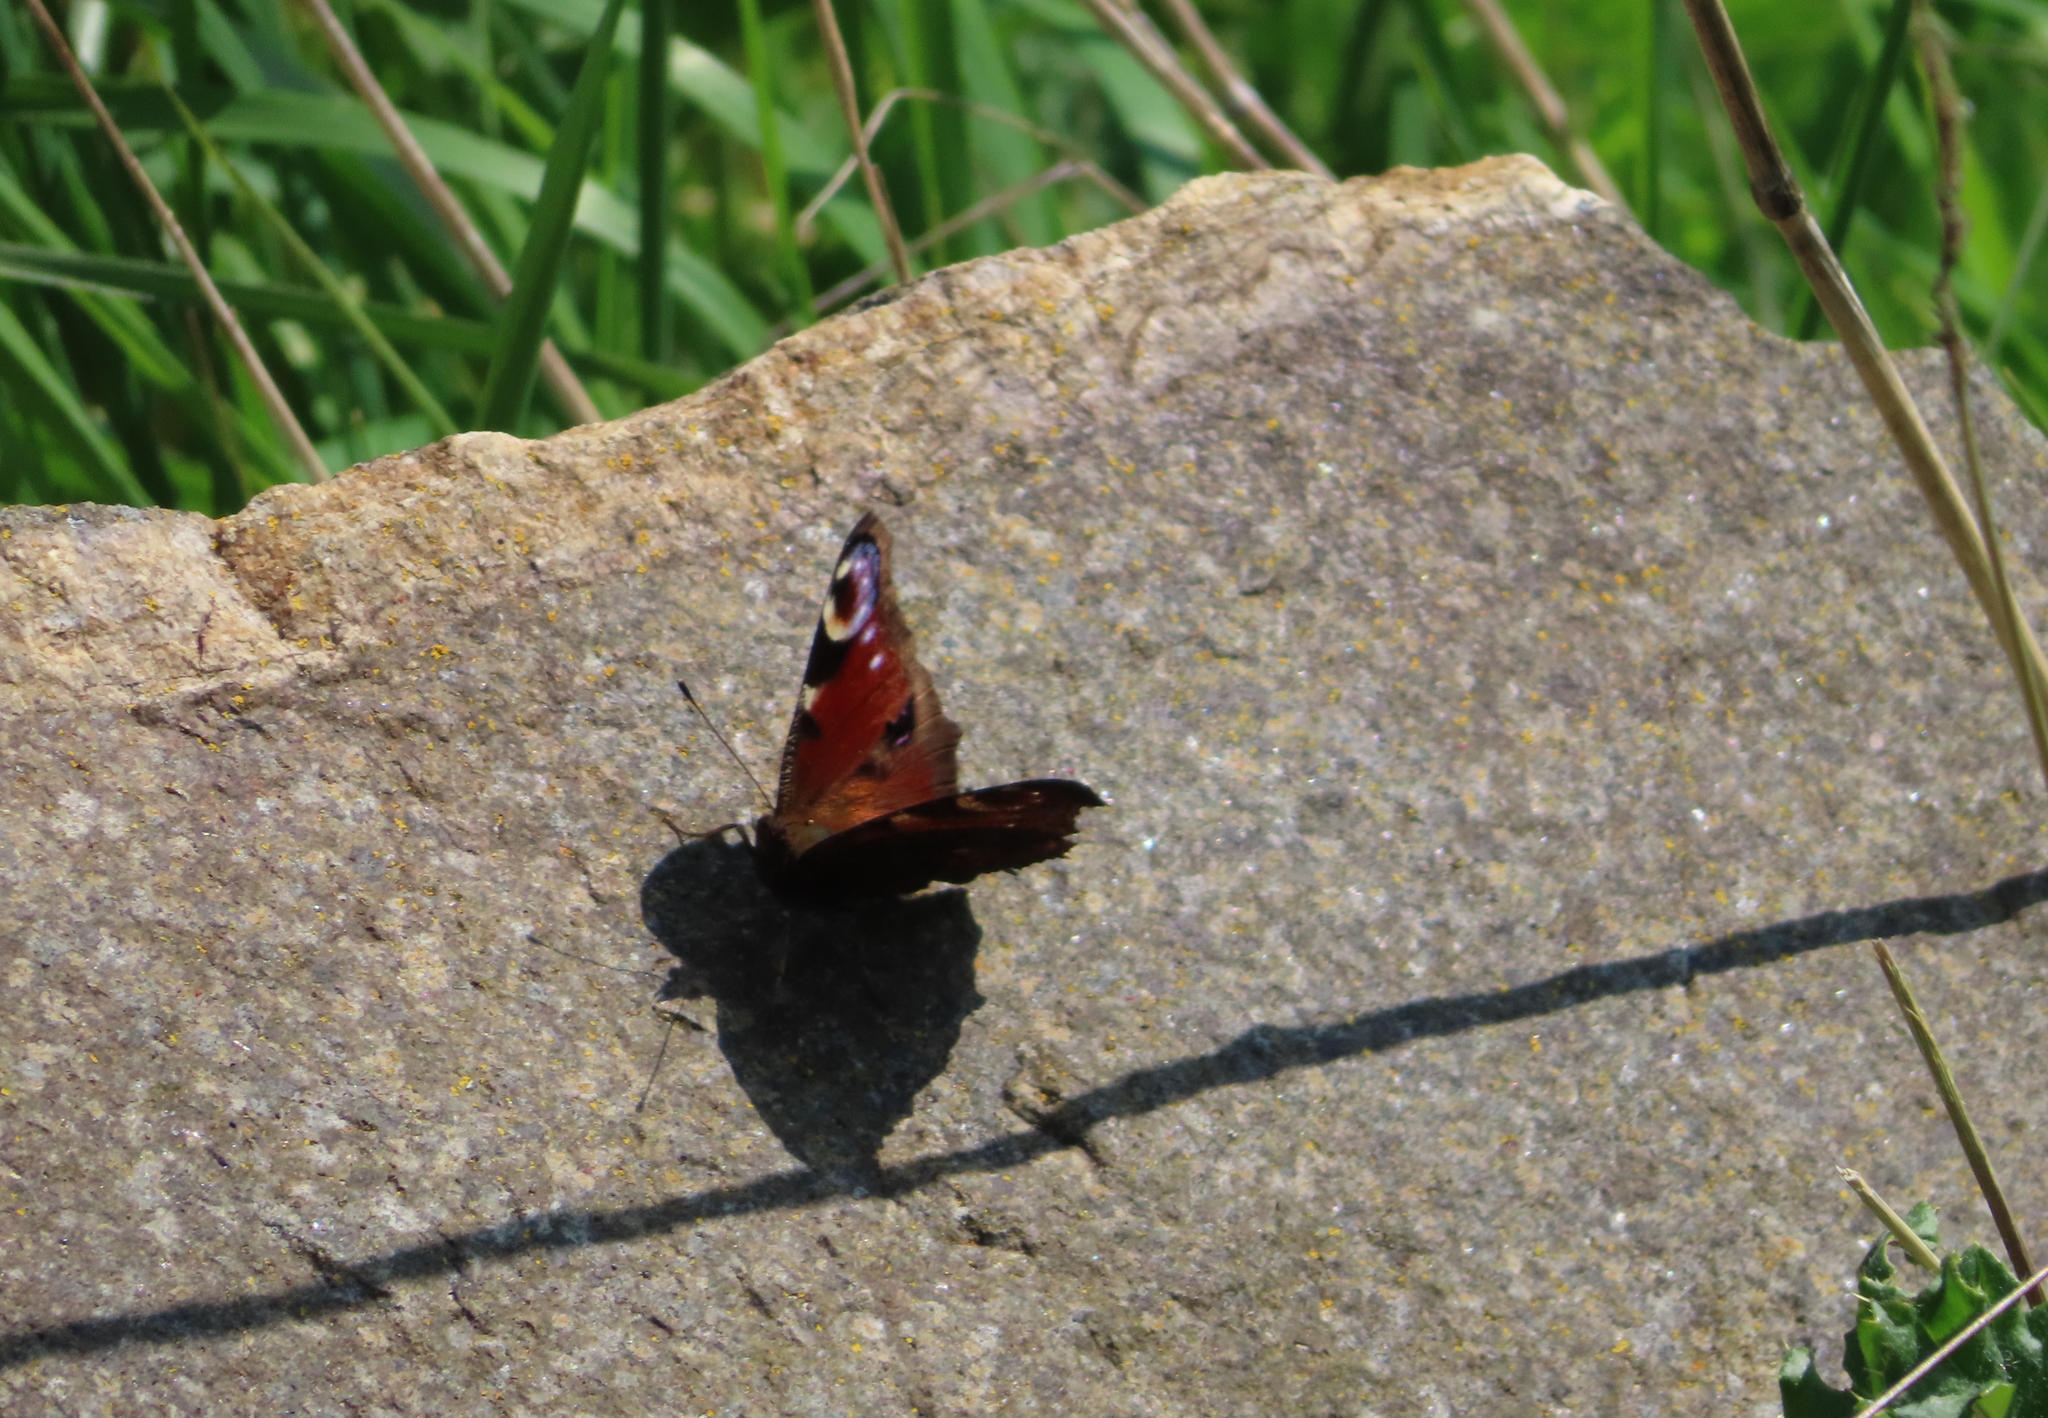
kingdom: Animalia
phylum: Arthropoda
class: Insecta
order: Lepidoptera
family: Nymphalidae
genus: Aglais
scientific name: Aglais io
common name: Peacock
